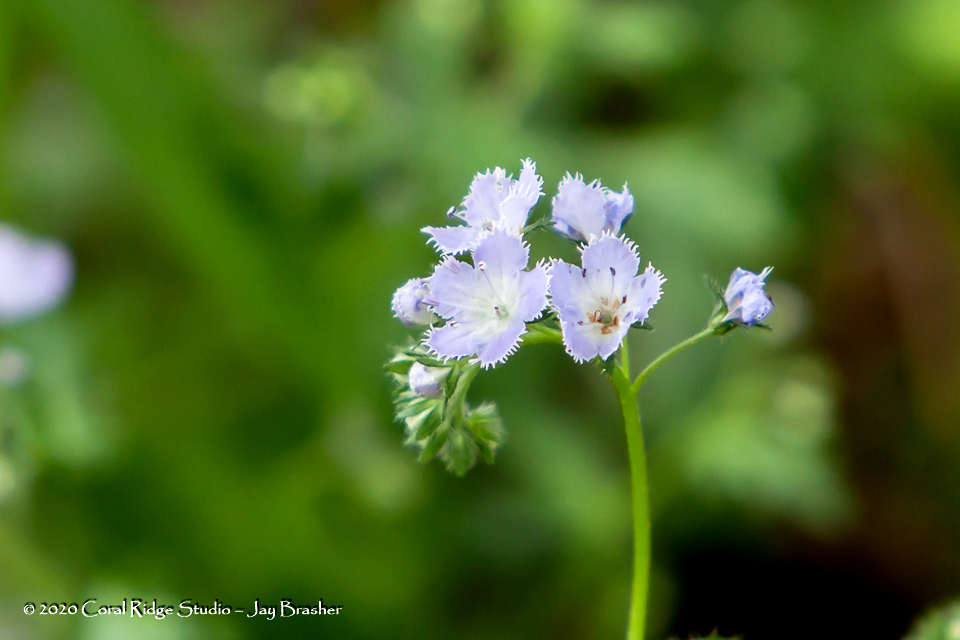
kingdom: Plantae
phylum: Tracheophyta
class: Magnoliopsida
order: Boraginales
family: Hydrophyllaceae
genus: Phacelia
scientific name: Phacelia purshii
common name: Miami-mist
